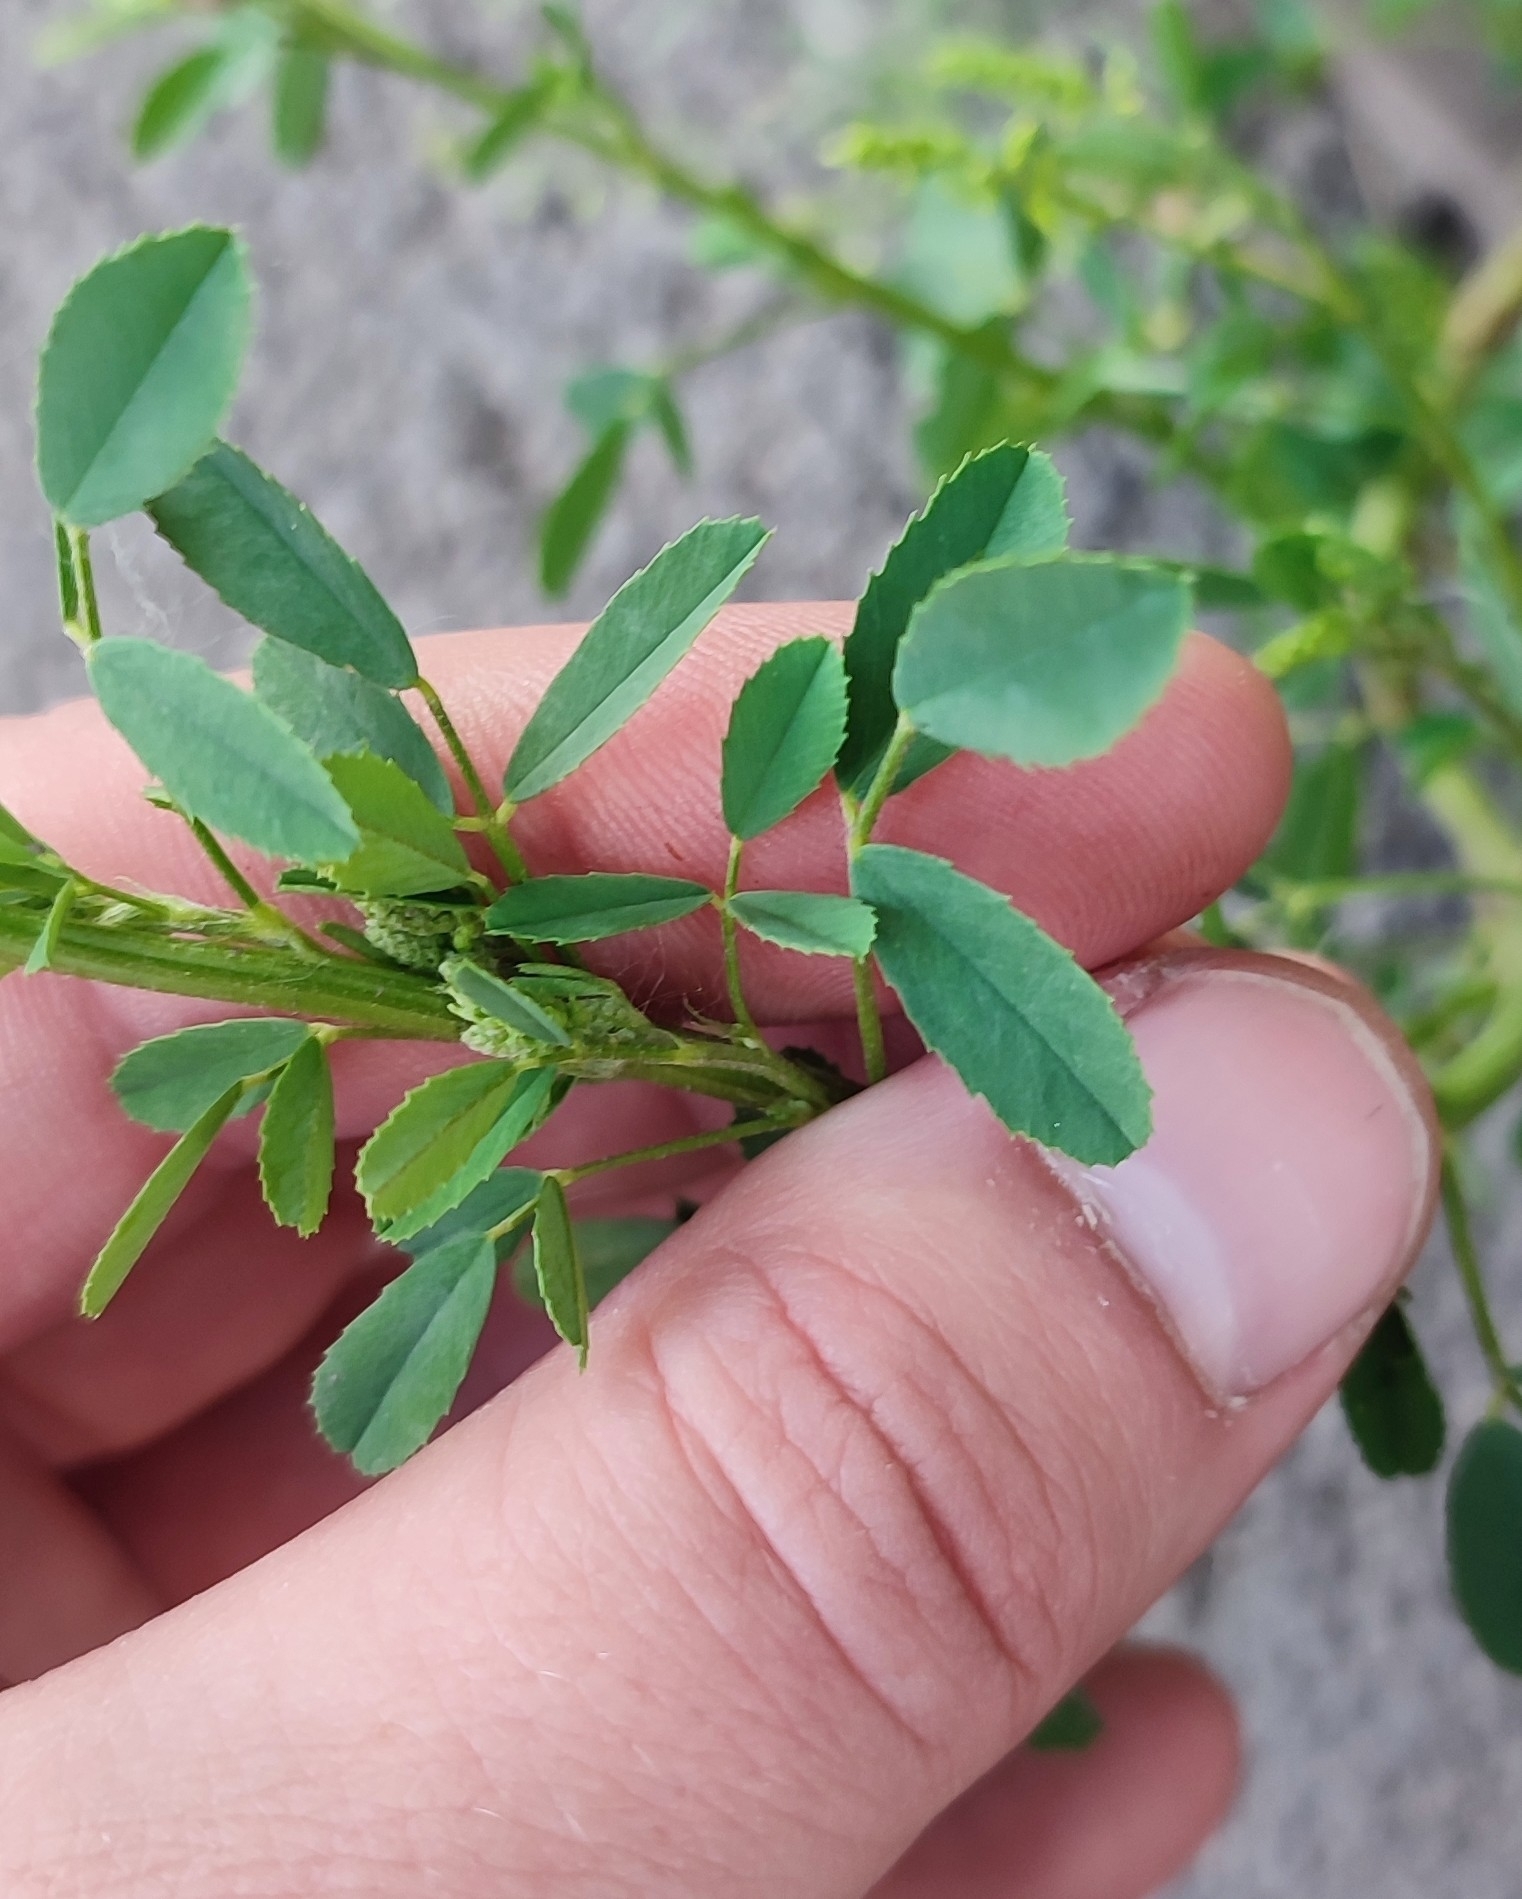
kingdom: Plantae
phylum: Tracheophyta
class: Magnoliopsida
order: Fabales
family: Fabaceae
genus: Melilotus
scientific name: Melilotus officinalis
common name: Sweetclover
